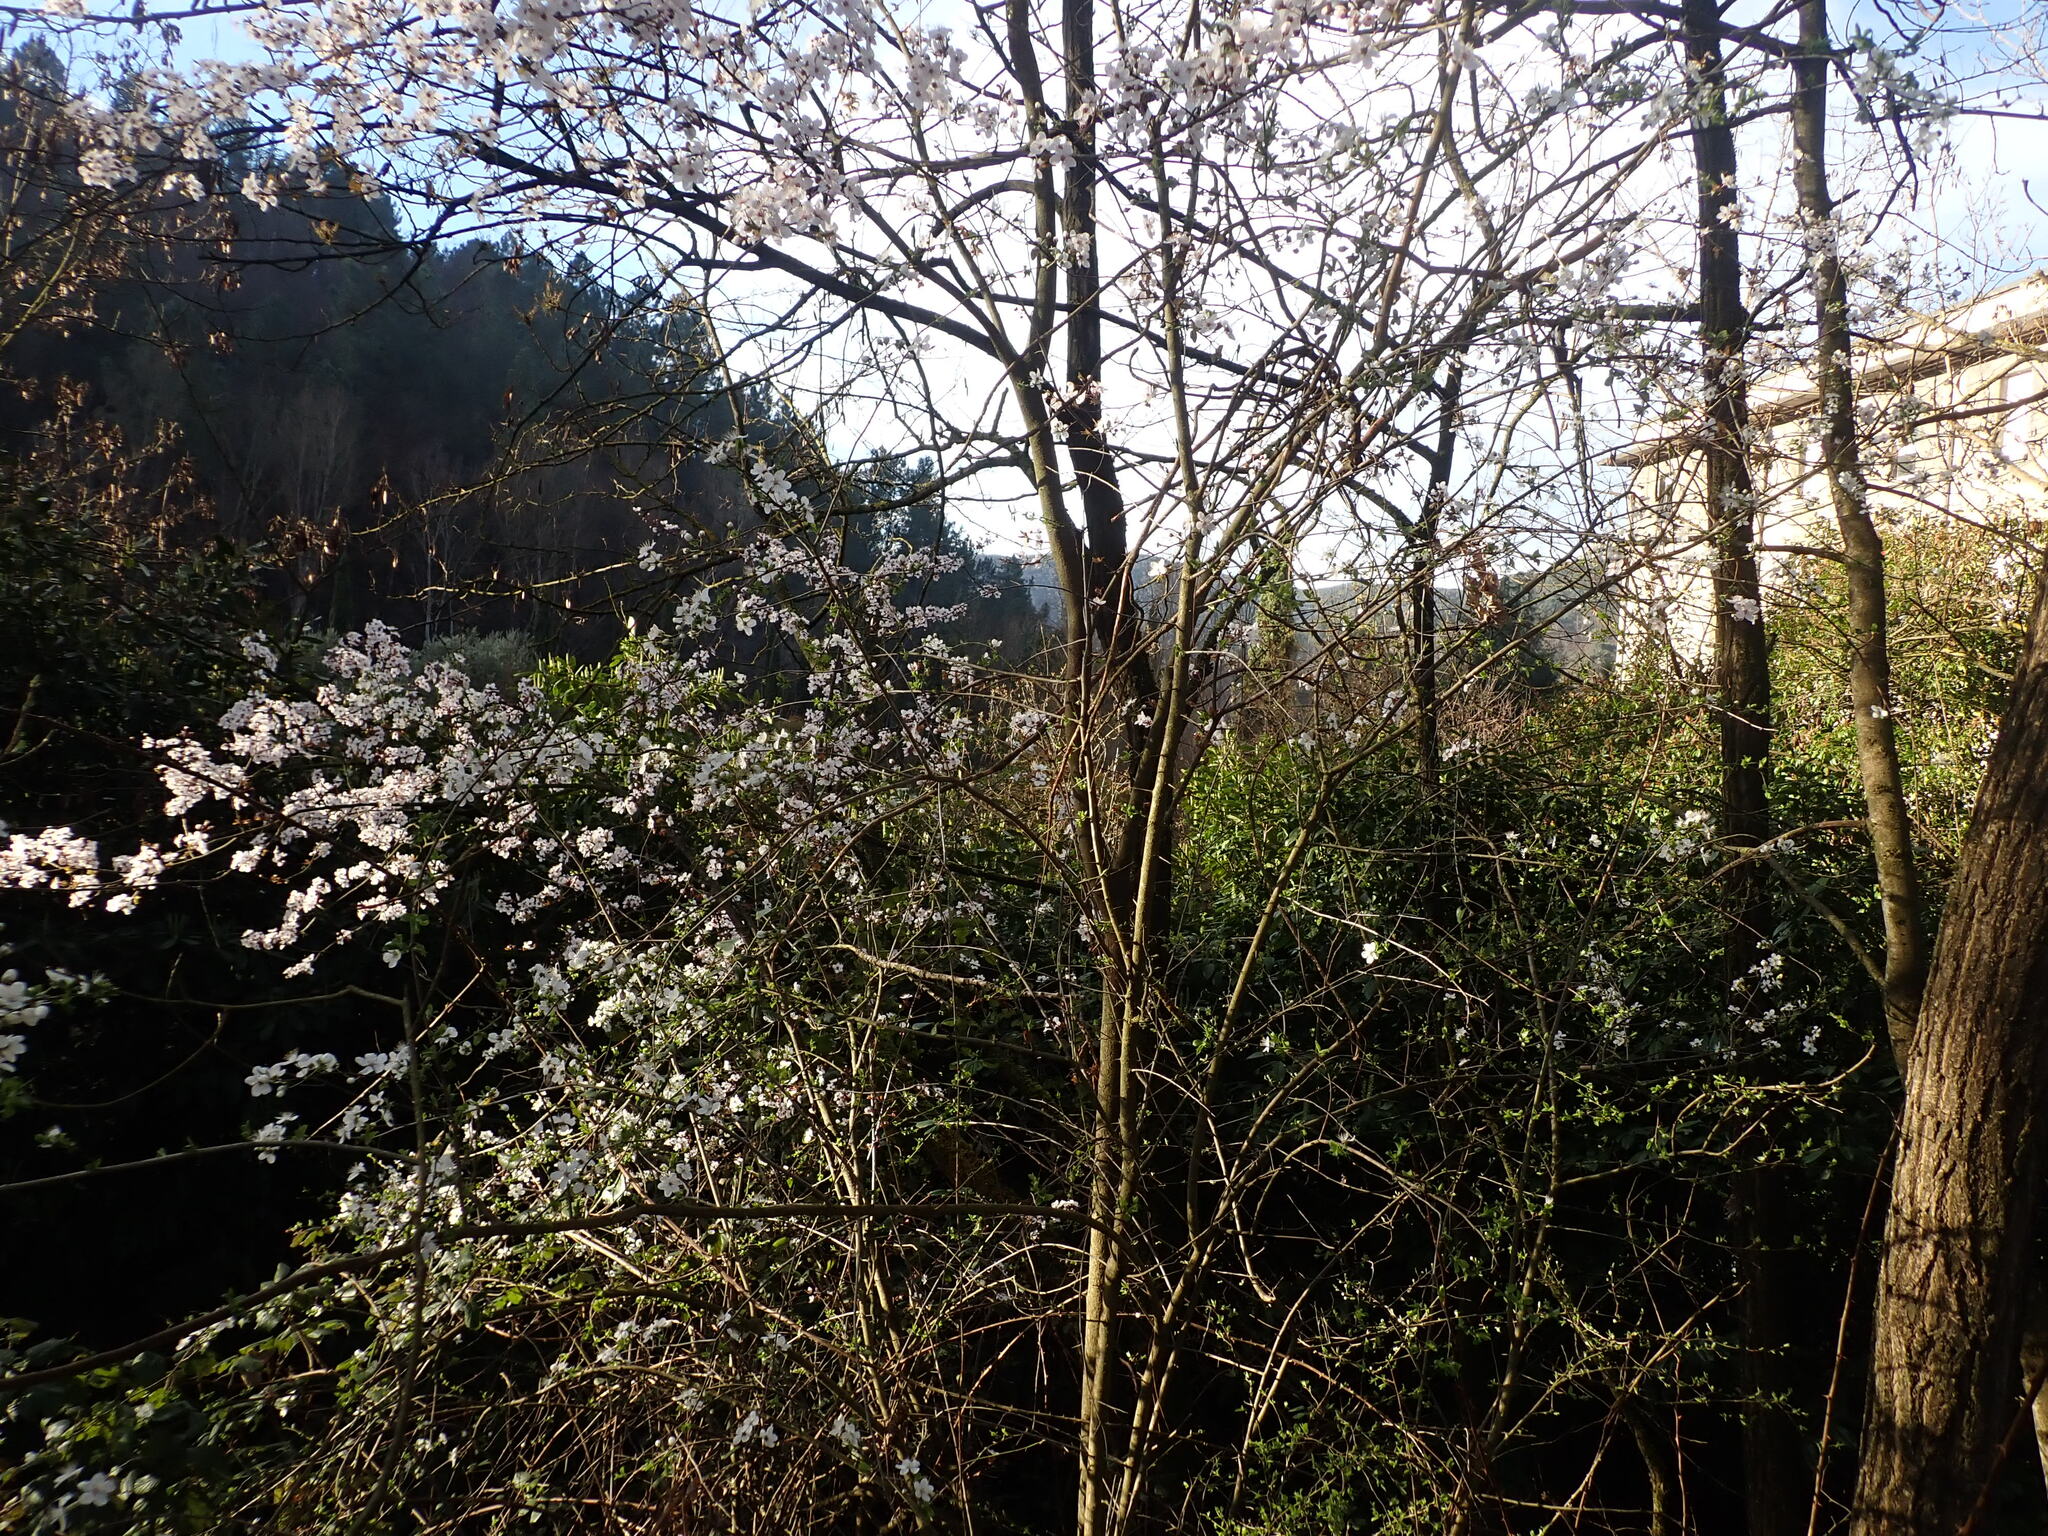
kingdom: Animalia
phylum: Arthropoda
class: Insecta
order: Lepidoptera
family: Lycaenidae
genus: Thecla
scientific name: Thecla betulae
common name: Brown hairstreak
